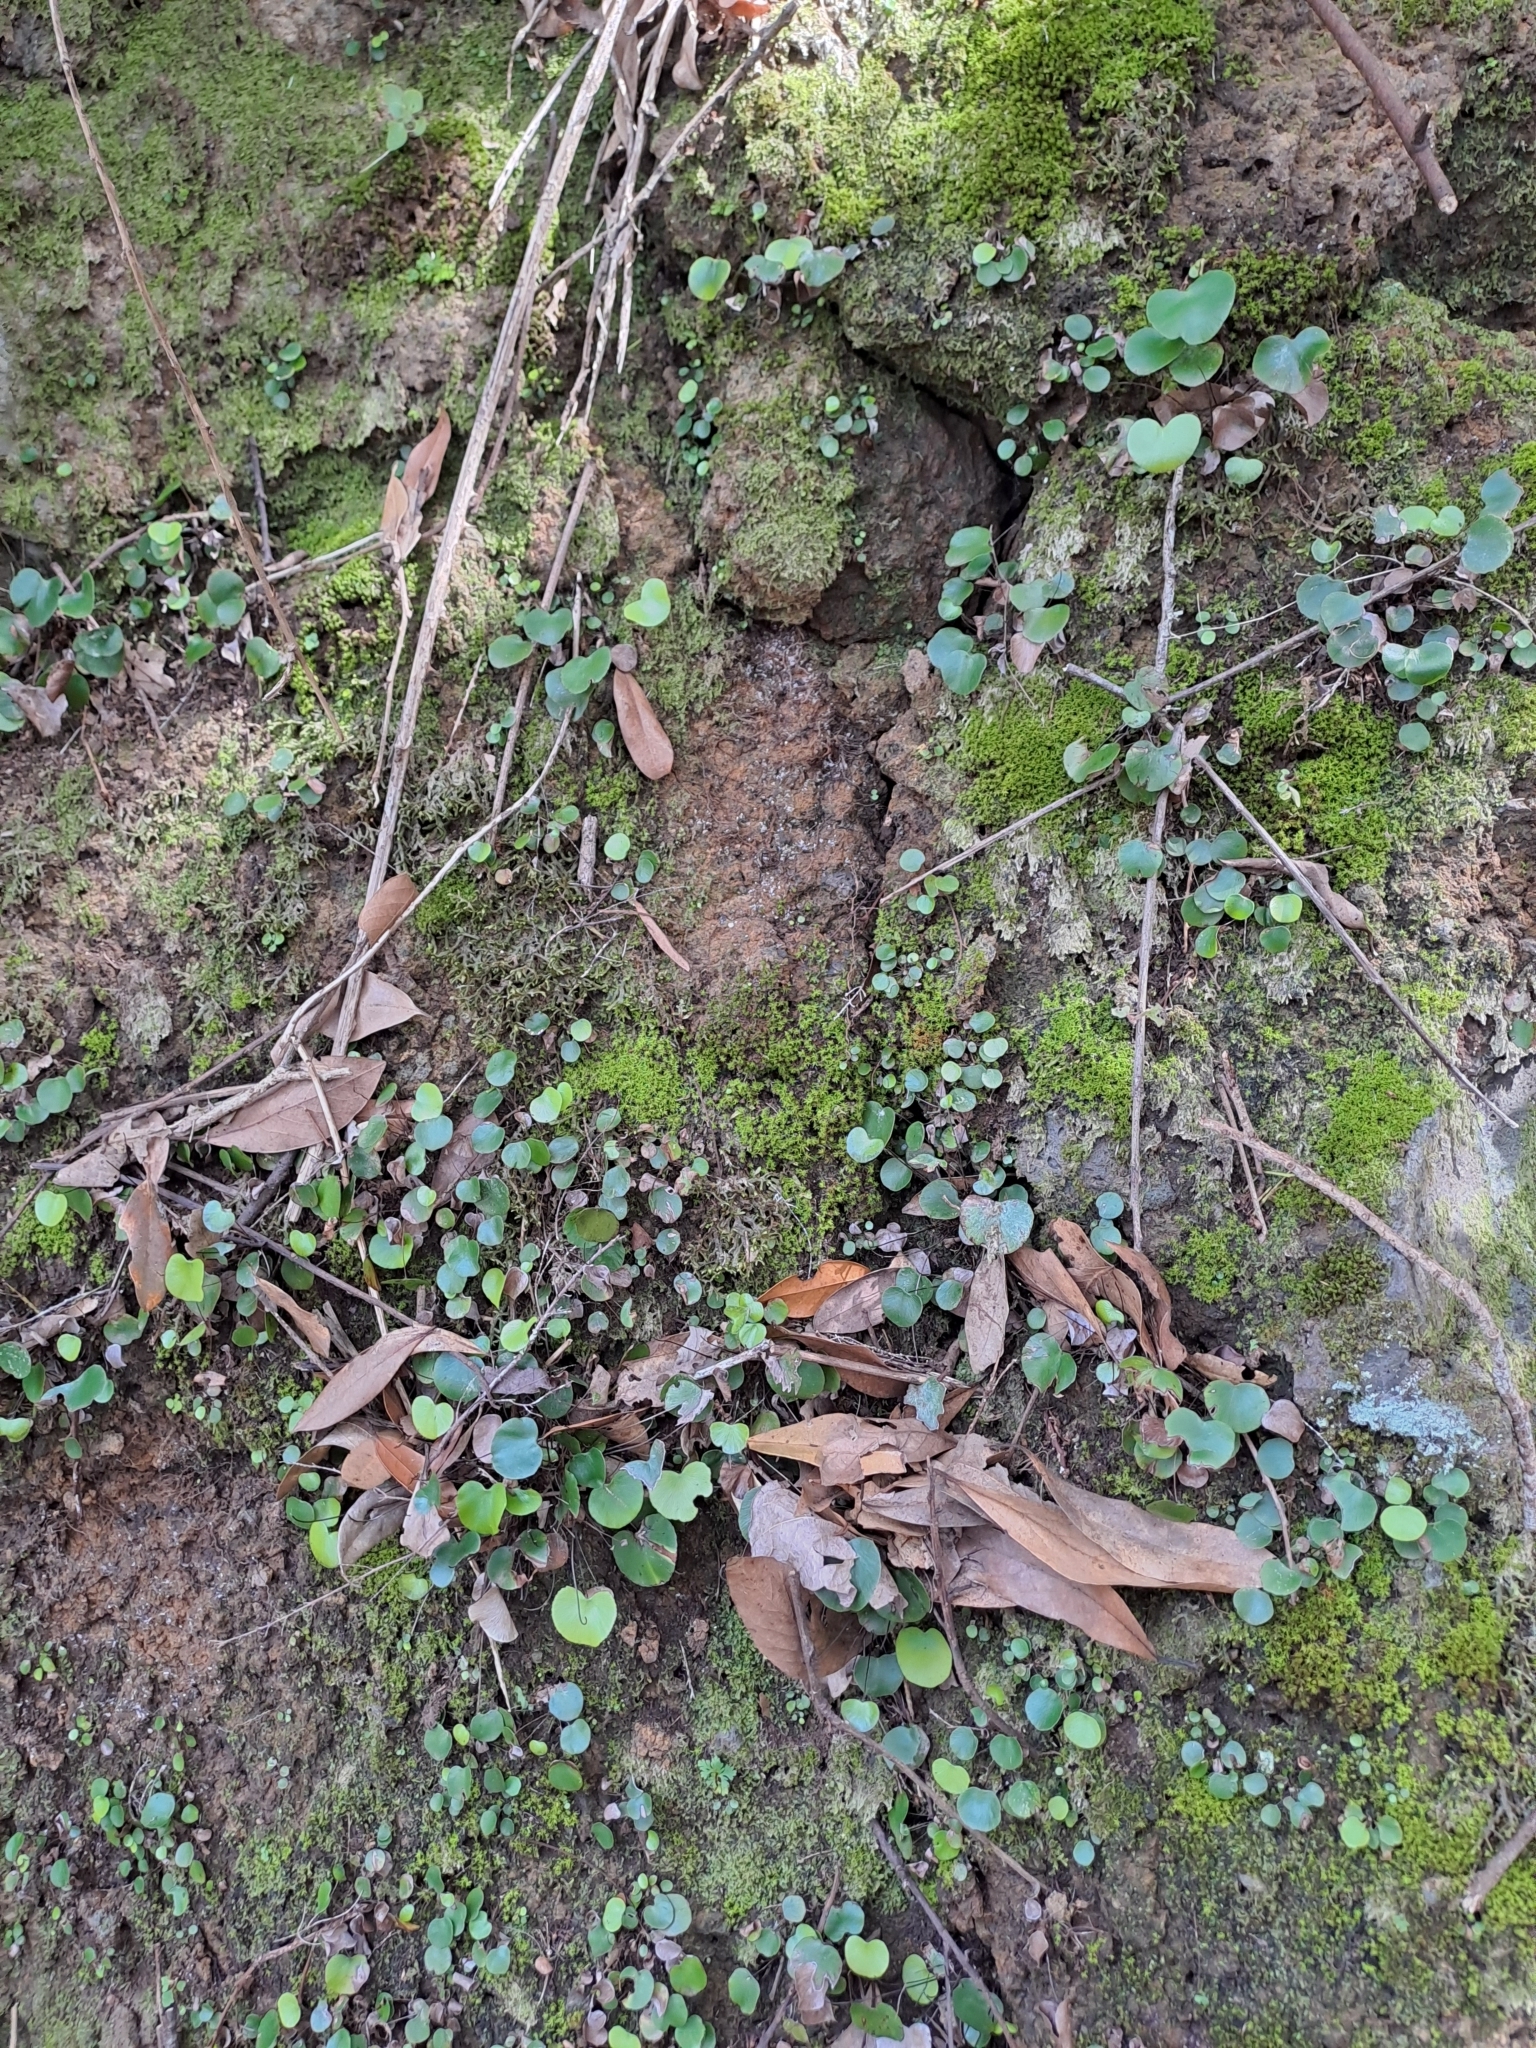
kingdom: Plantae
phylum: Tracheophyta
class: Polypodiopsida
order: Polypodiales
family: Pteridaceae
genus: Adiantum
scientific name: Adiantum reniforme
